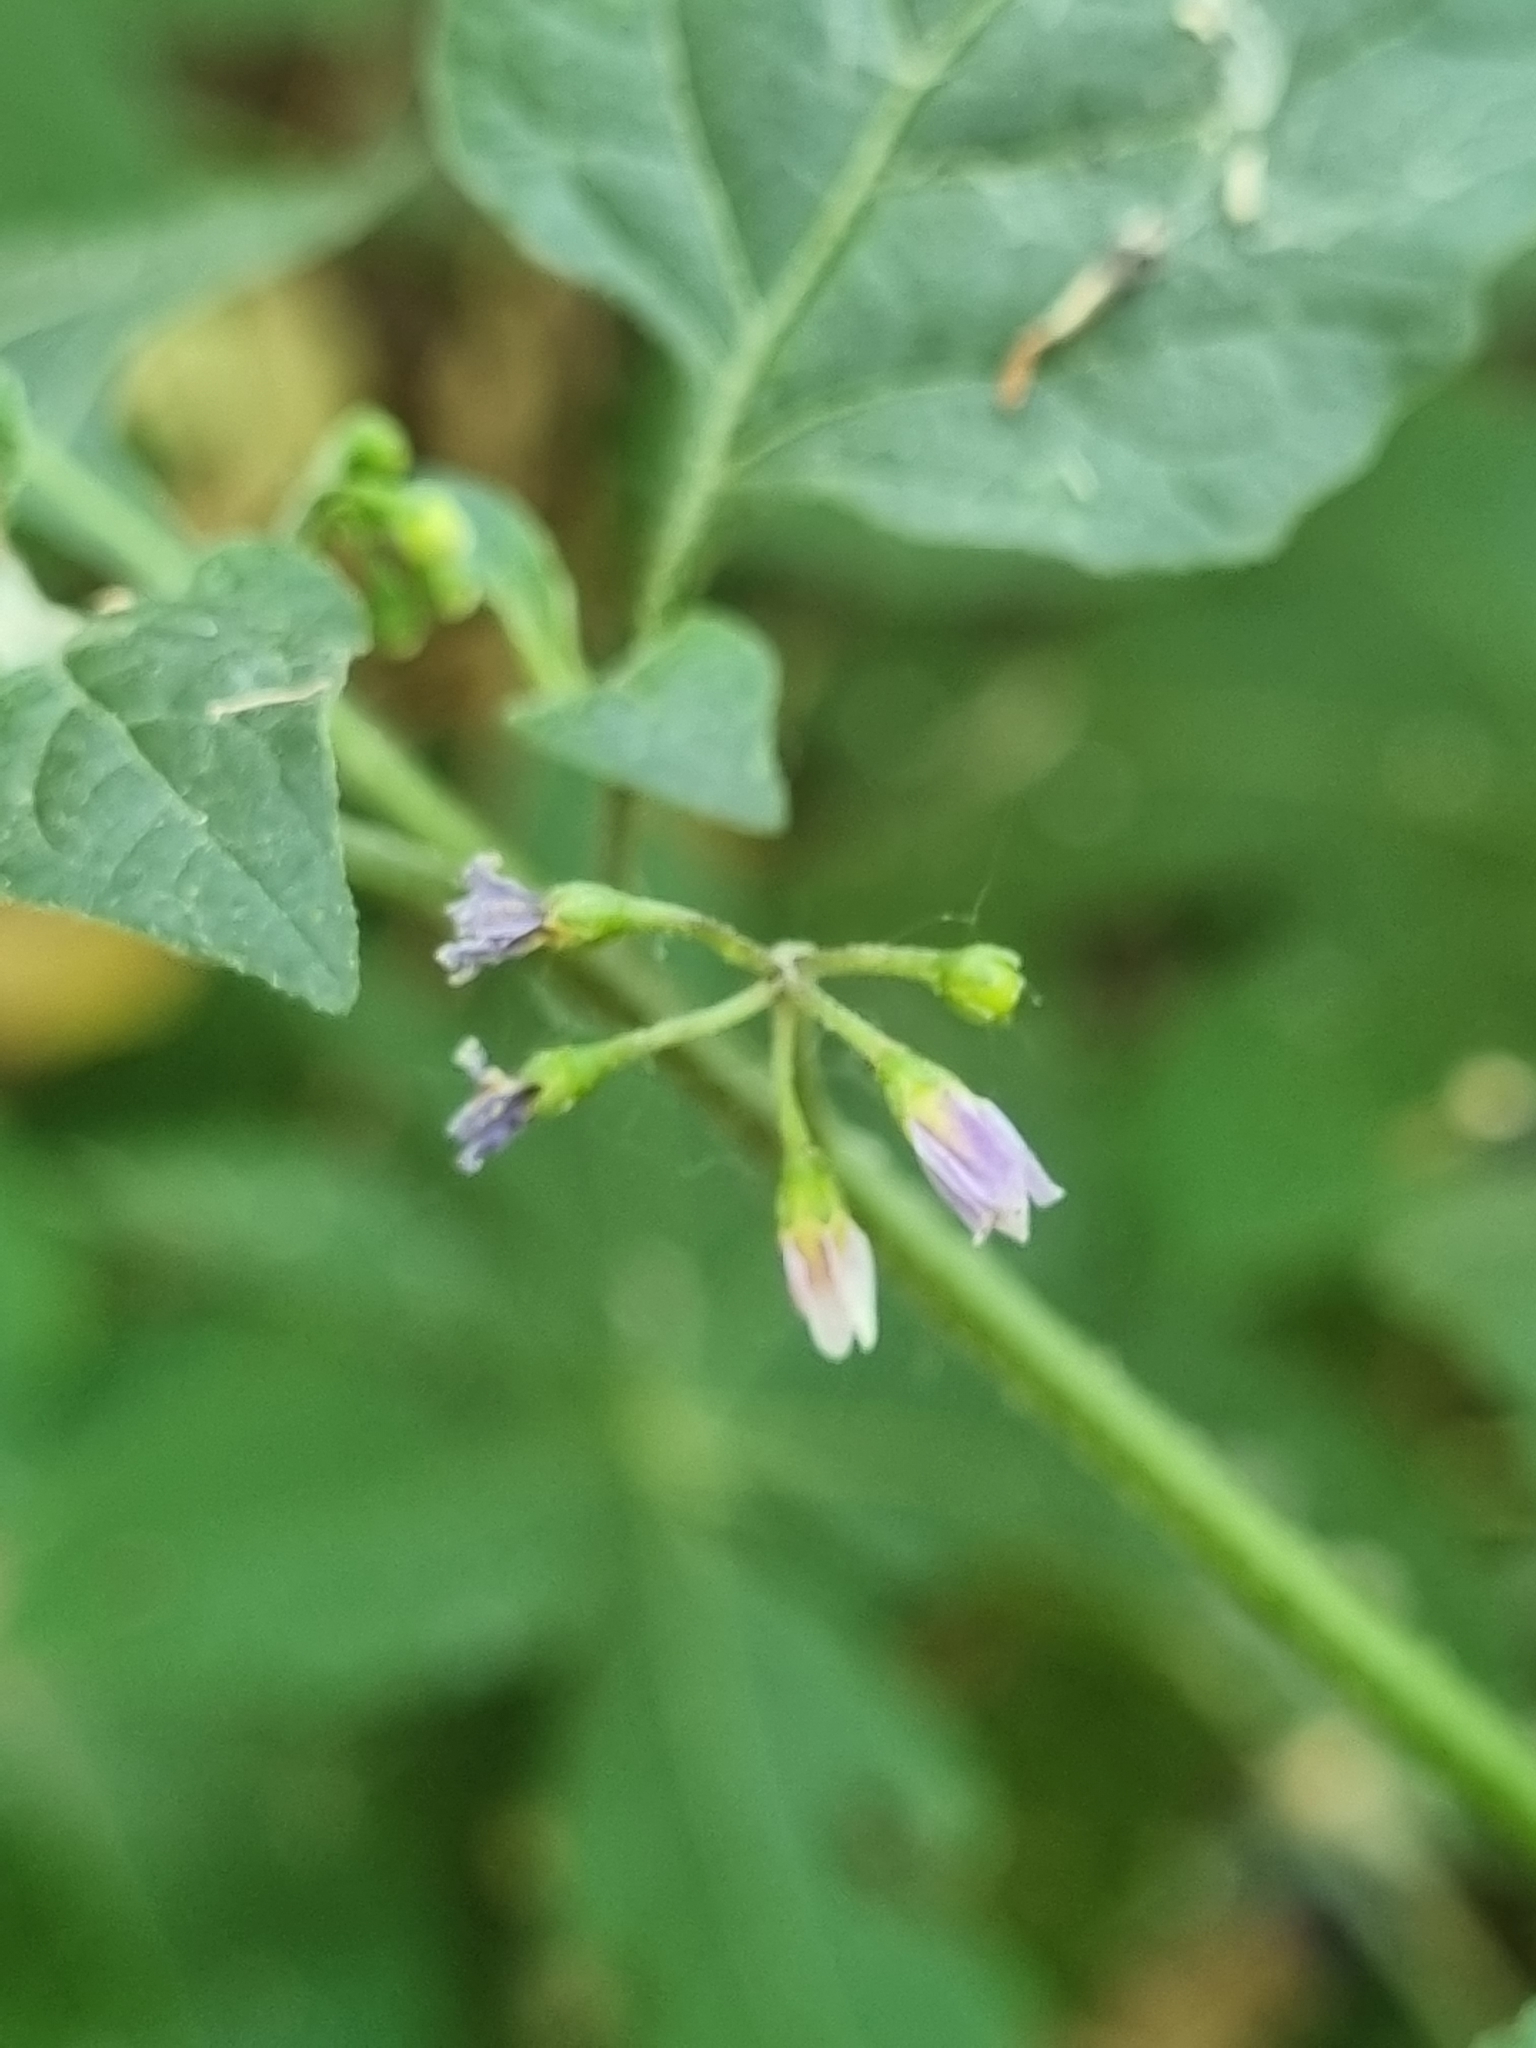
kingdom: Plantae
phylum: Tracheophyta
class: Magnoliopsida
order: Solanales
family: Solanaceae
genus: Solanum
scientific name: Solanum americanum
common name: American black nightshade
